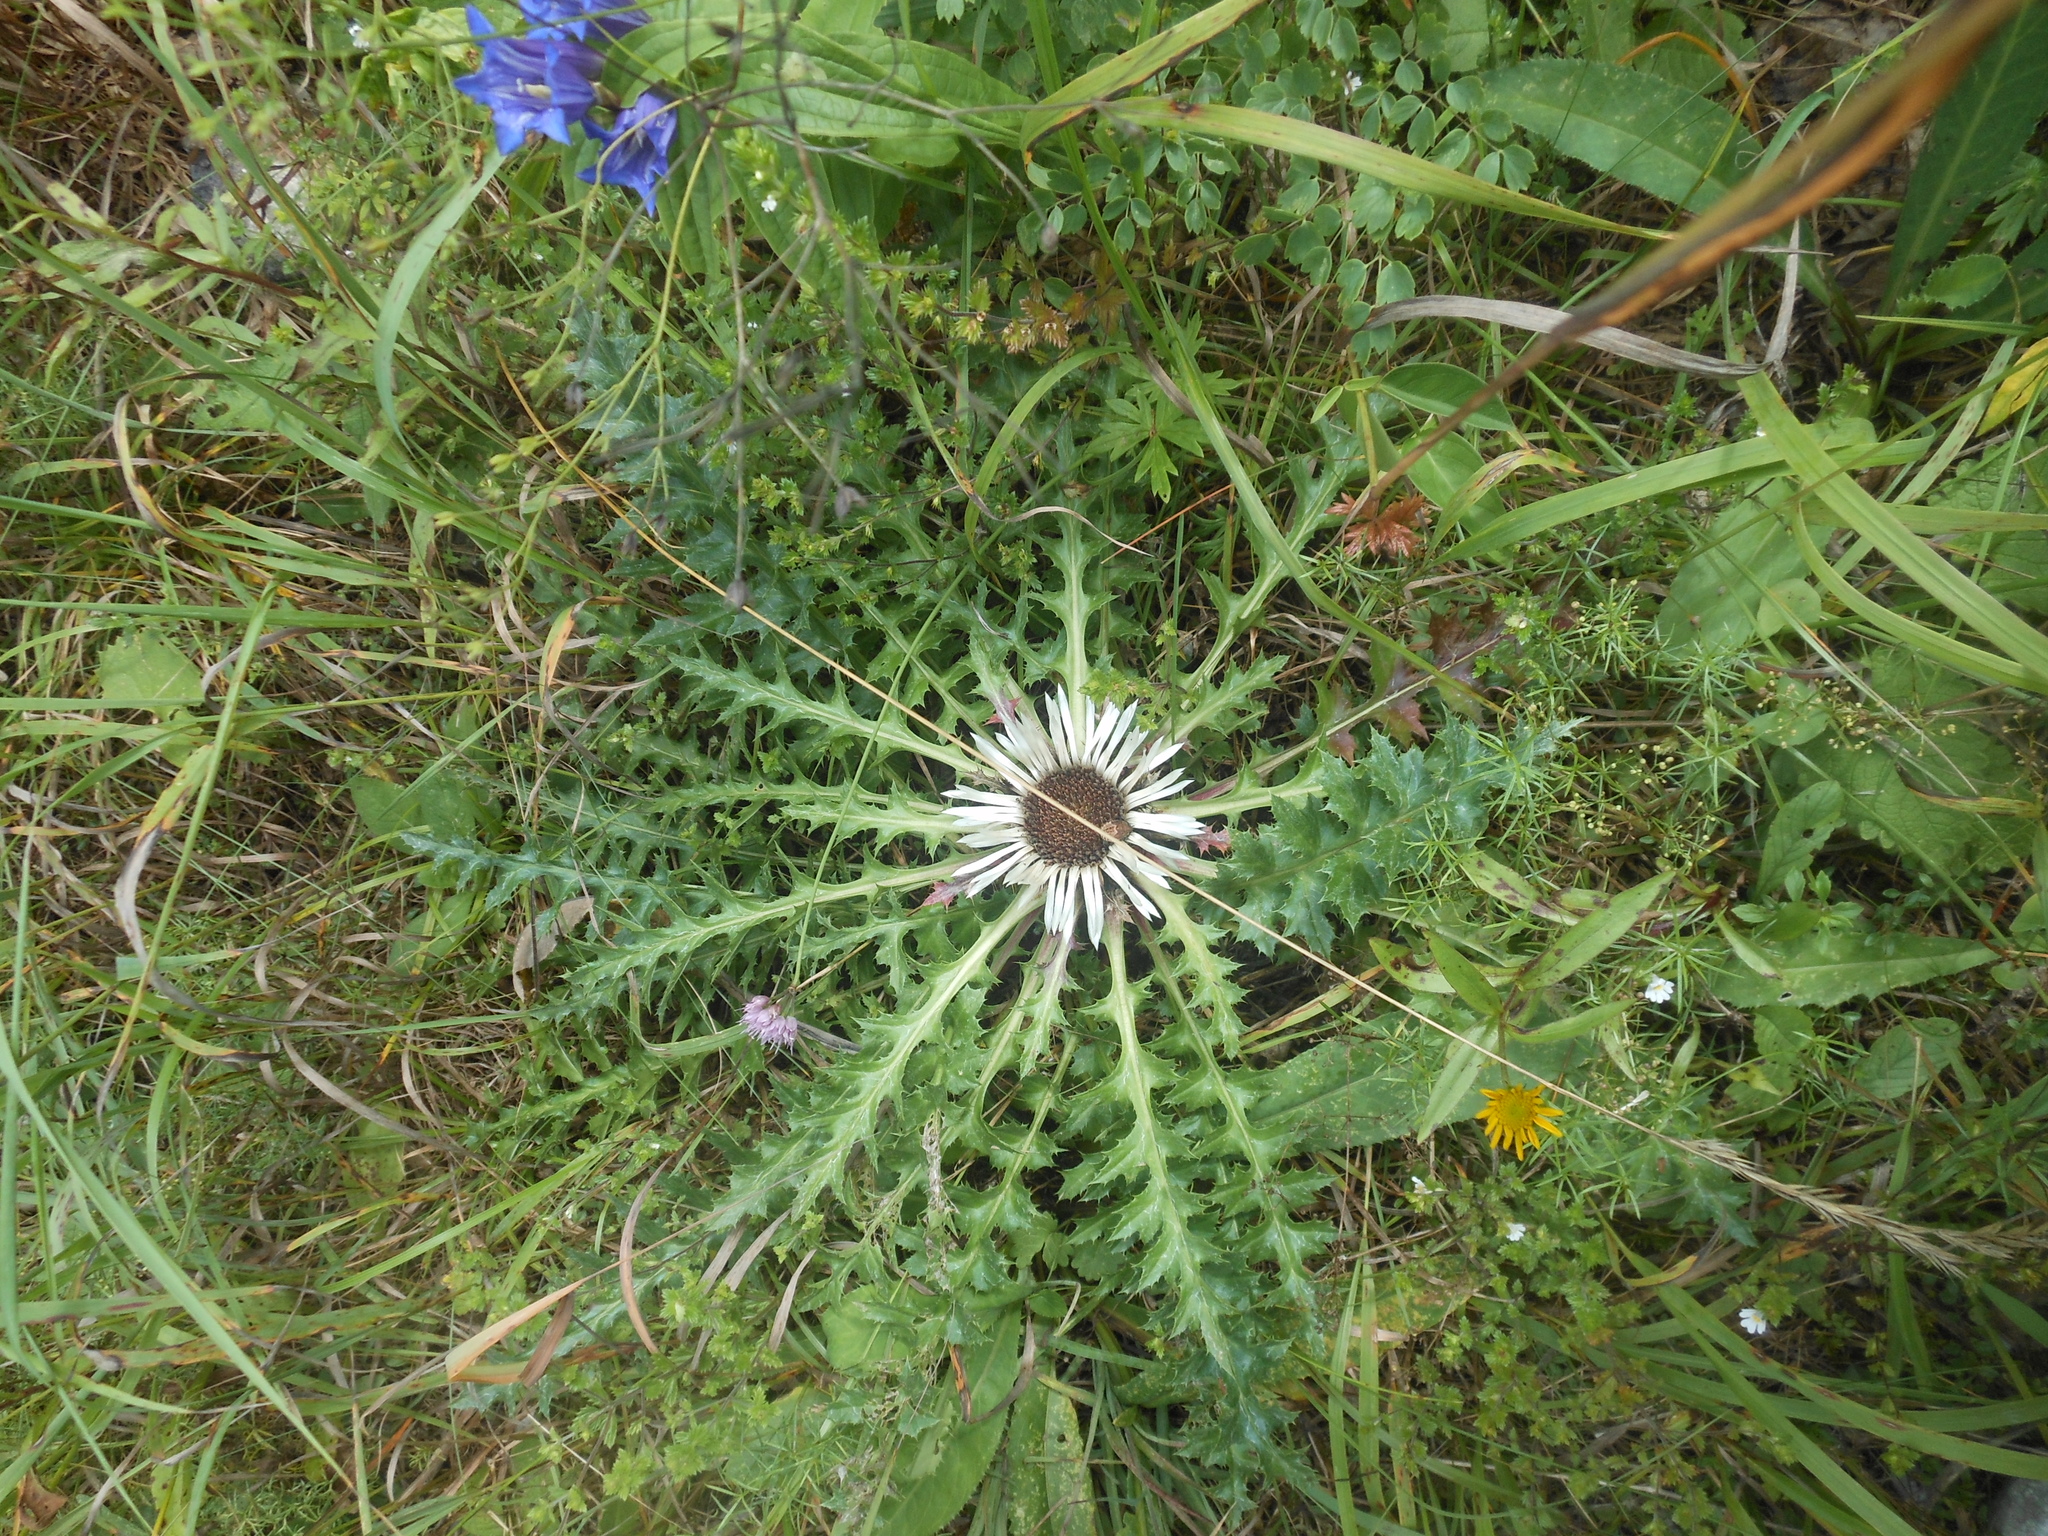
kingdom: Plantae
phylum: Tracheophyta
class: Magnoliopsida
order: Asterales
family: Asteraceae
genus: Carlina
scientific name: Carlina acaulis
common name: Stemless carline thistle
